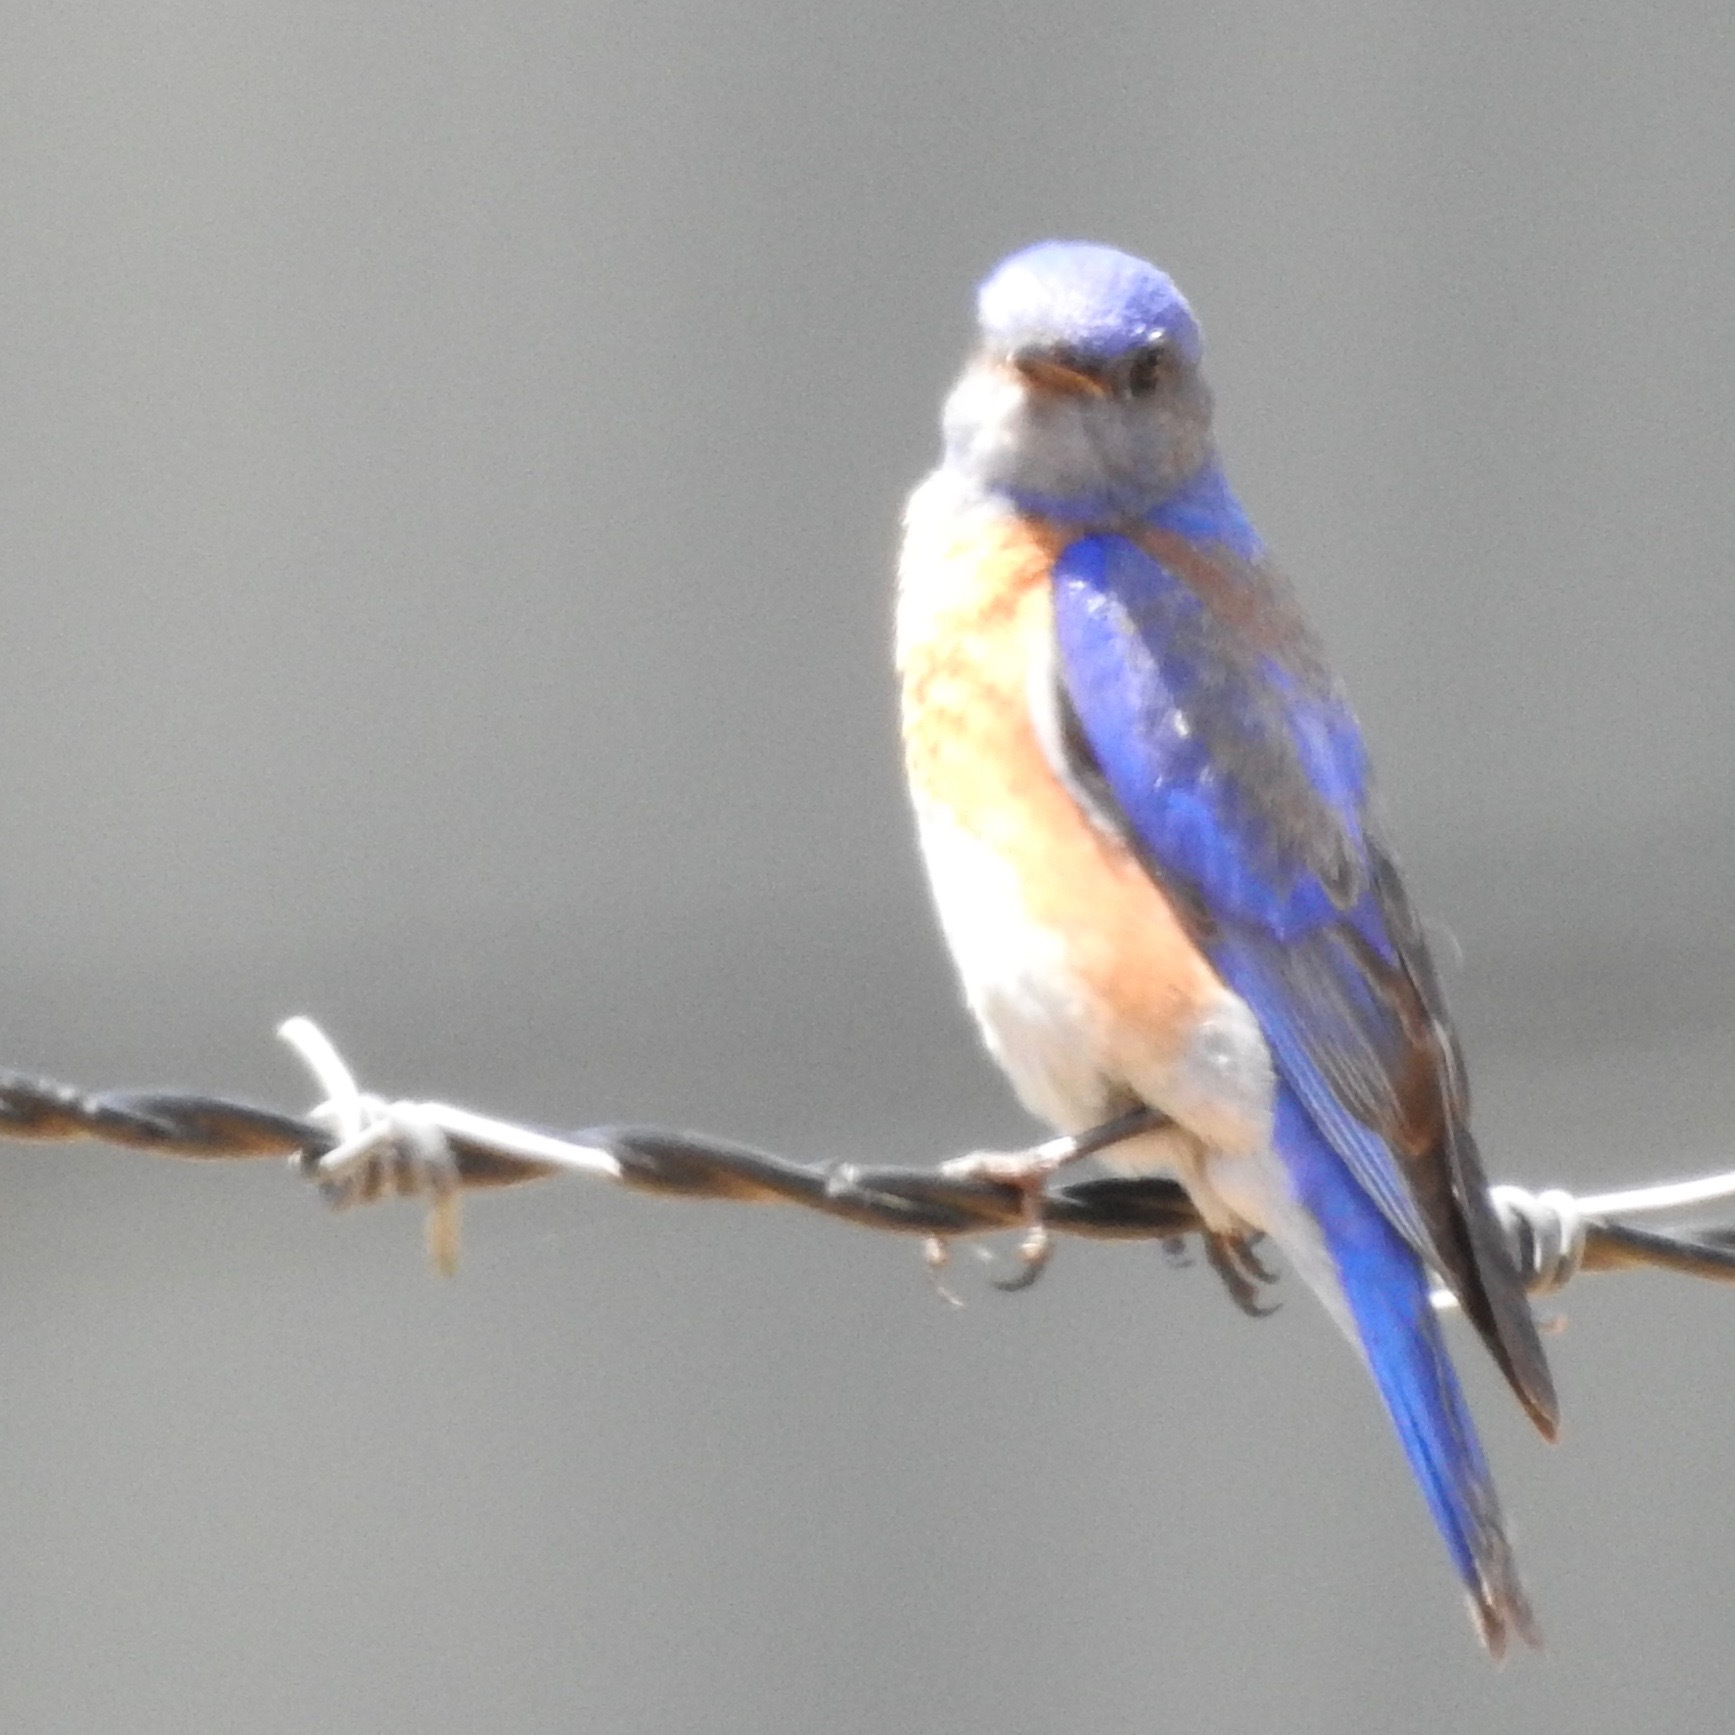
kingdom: Animalia
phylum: Chordata
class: Aves
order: Passeriformes
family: Turdidae
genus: Sialia
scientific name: Sialia mexicana
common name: Western bluebird
